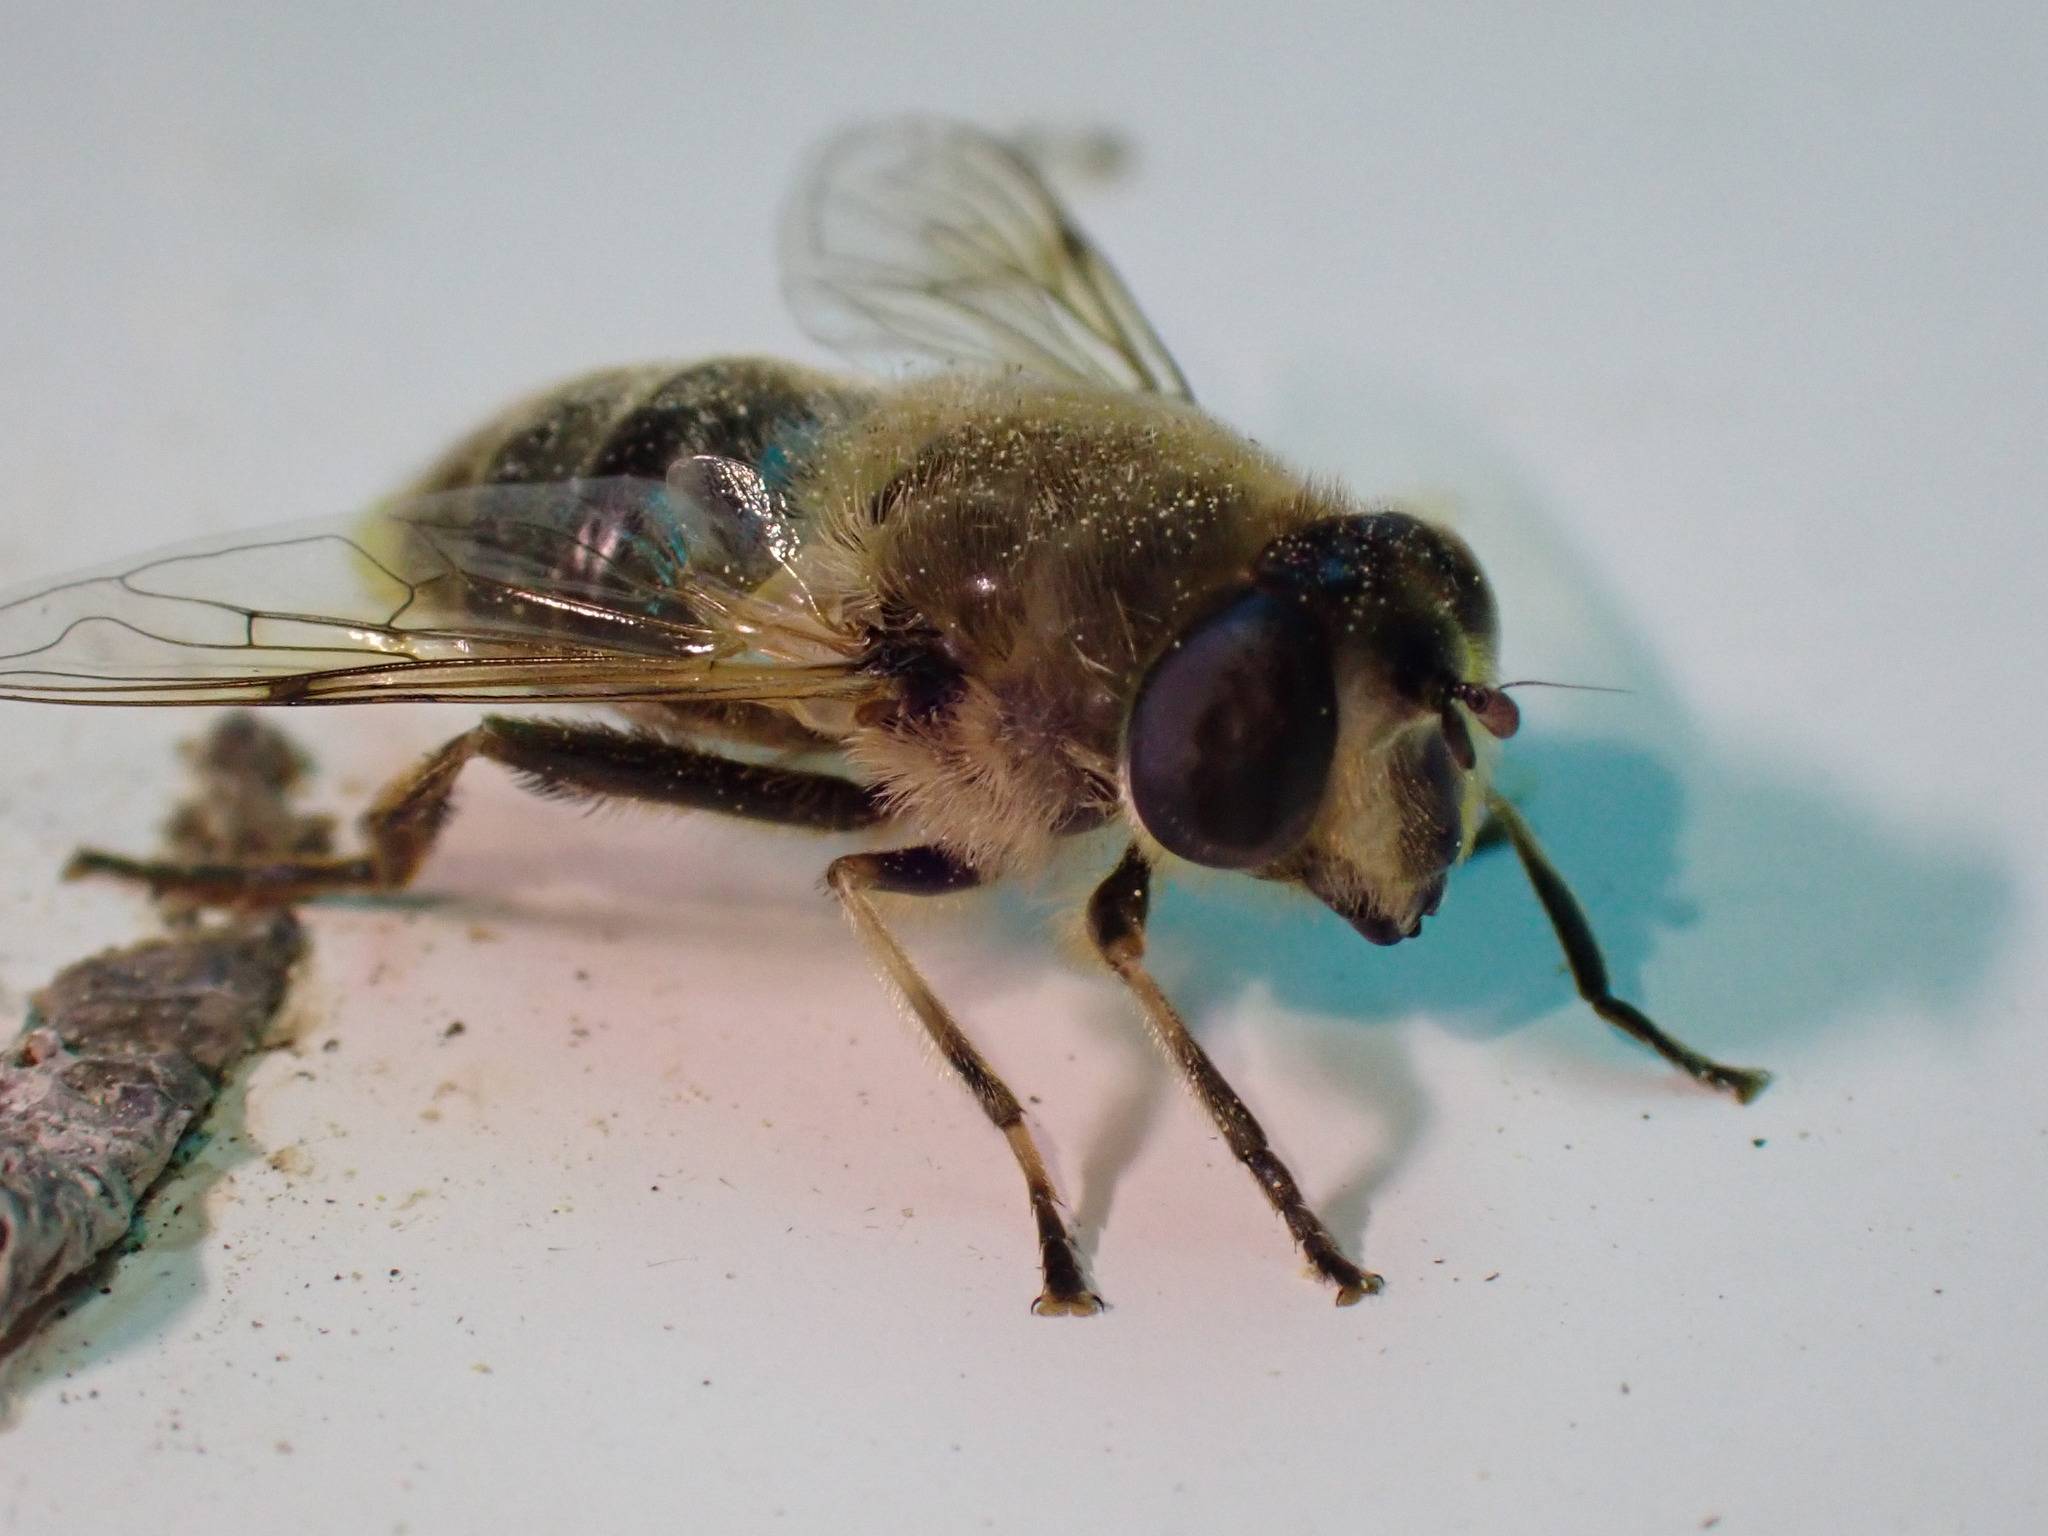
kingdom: Animalia
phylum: Arthropoda
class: Insecta
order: Diptera
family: Syrphidae
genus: Eristalis
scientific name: Eristalis tenax
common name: Drone fly
